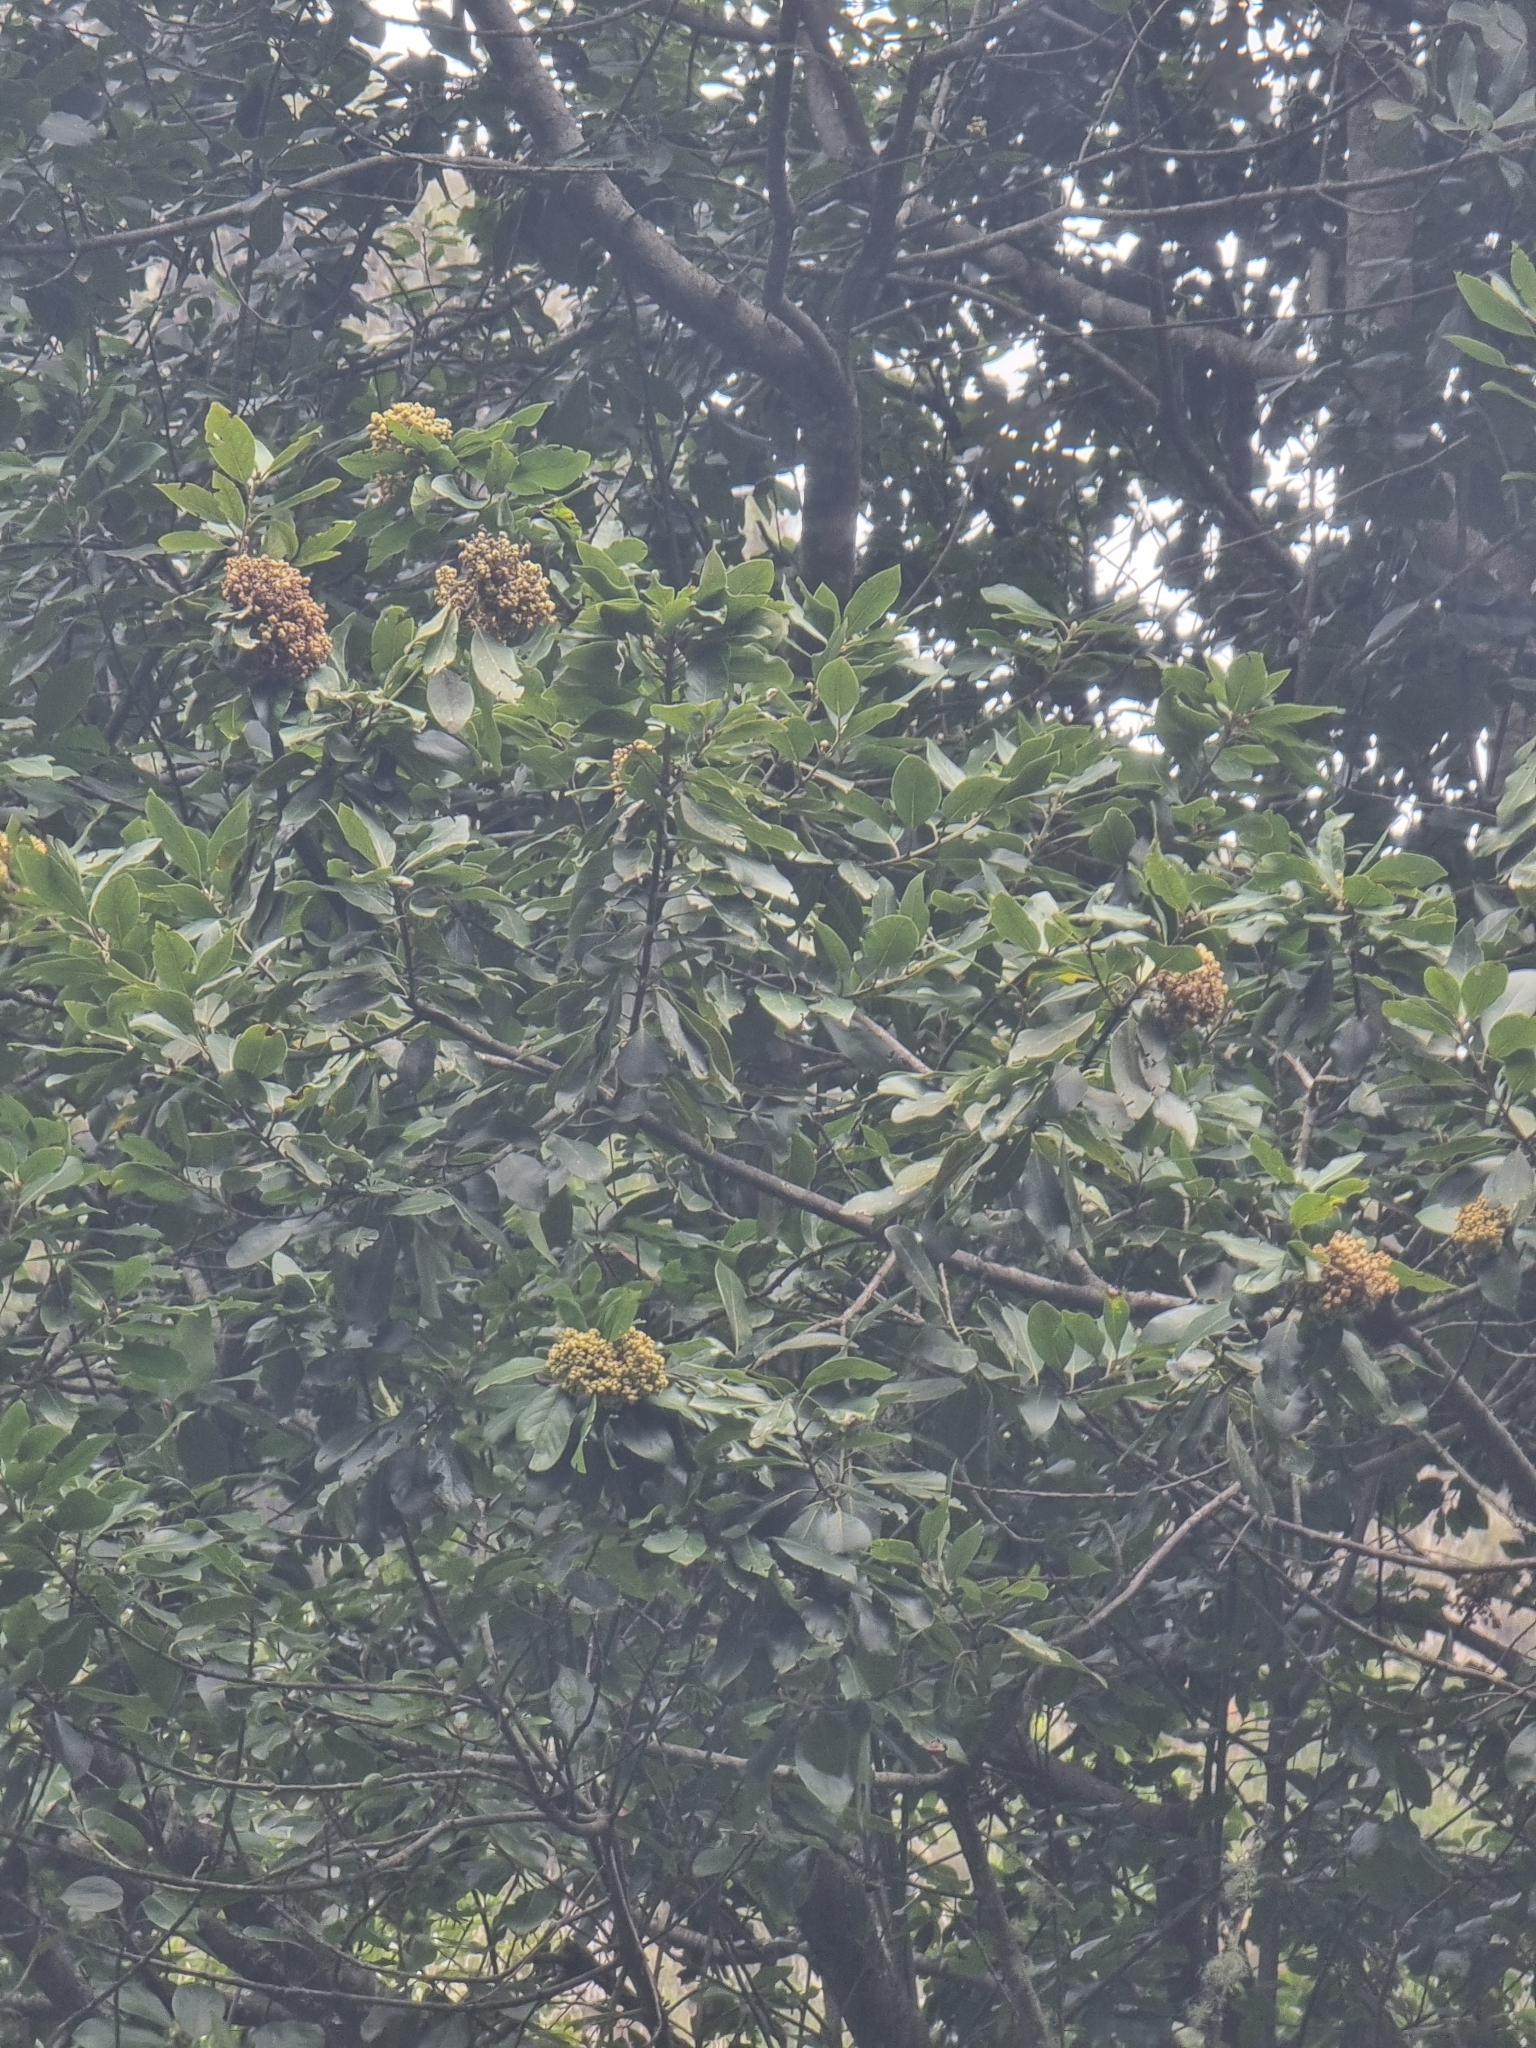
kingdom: Plantae
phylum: Tracheophyta
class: Magnoliopsida
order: Laurales
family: Lauraceae
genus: Laurus
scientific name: Laurus novocanariensis
